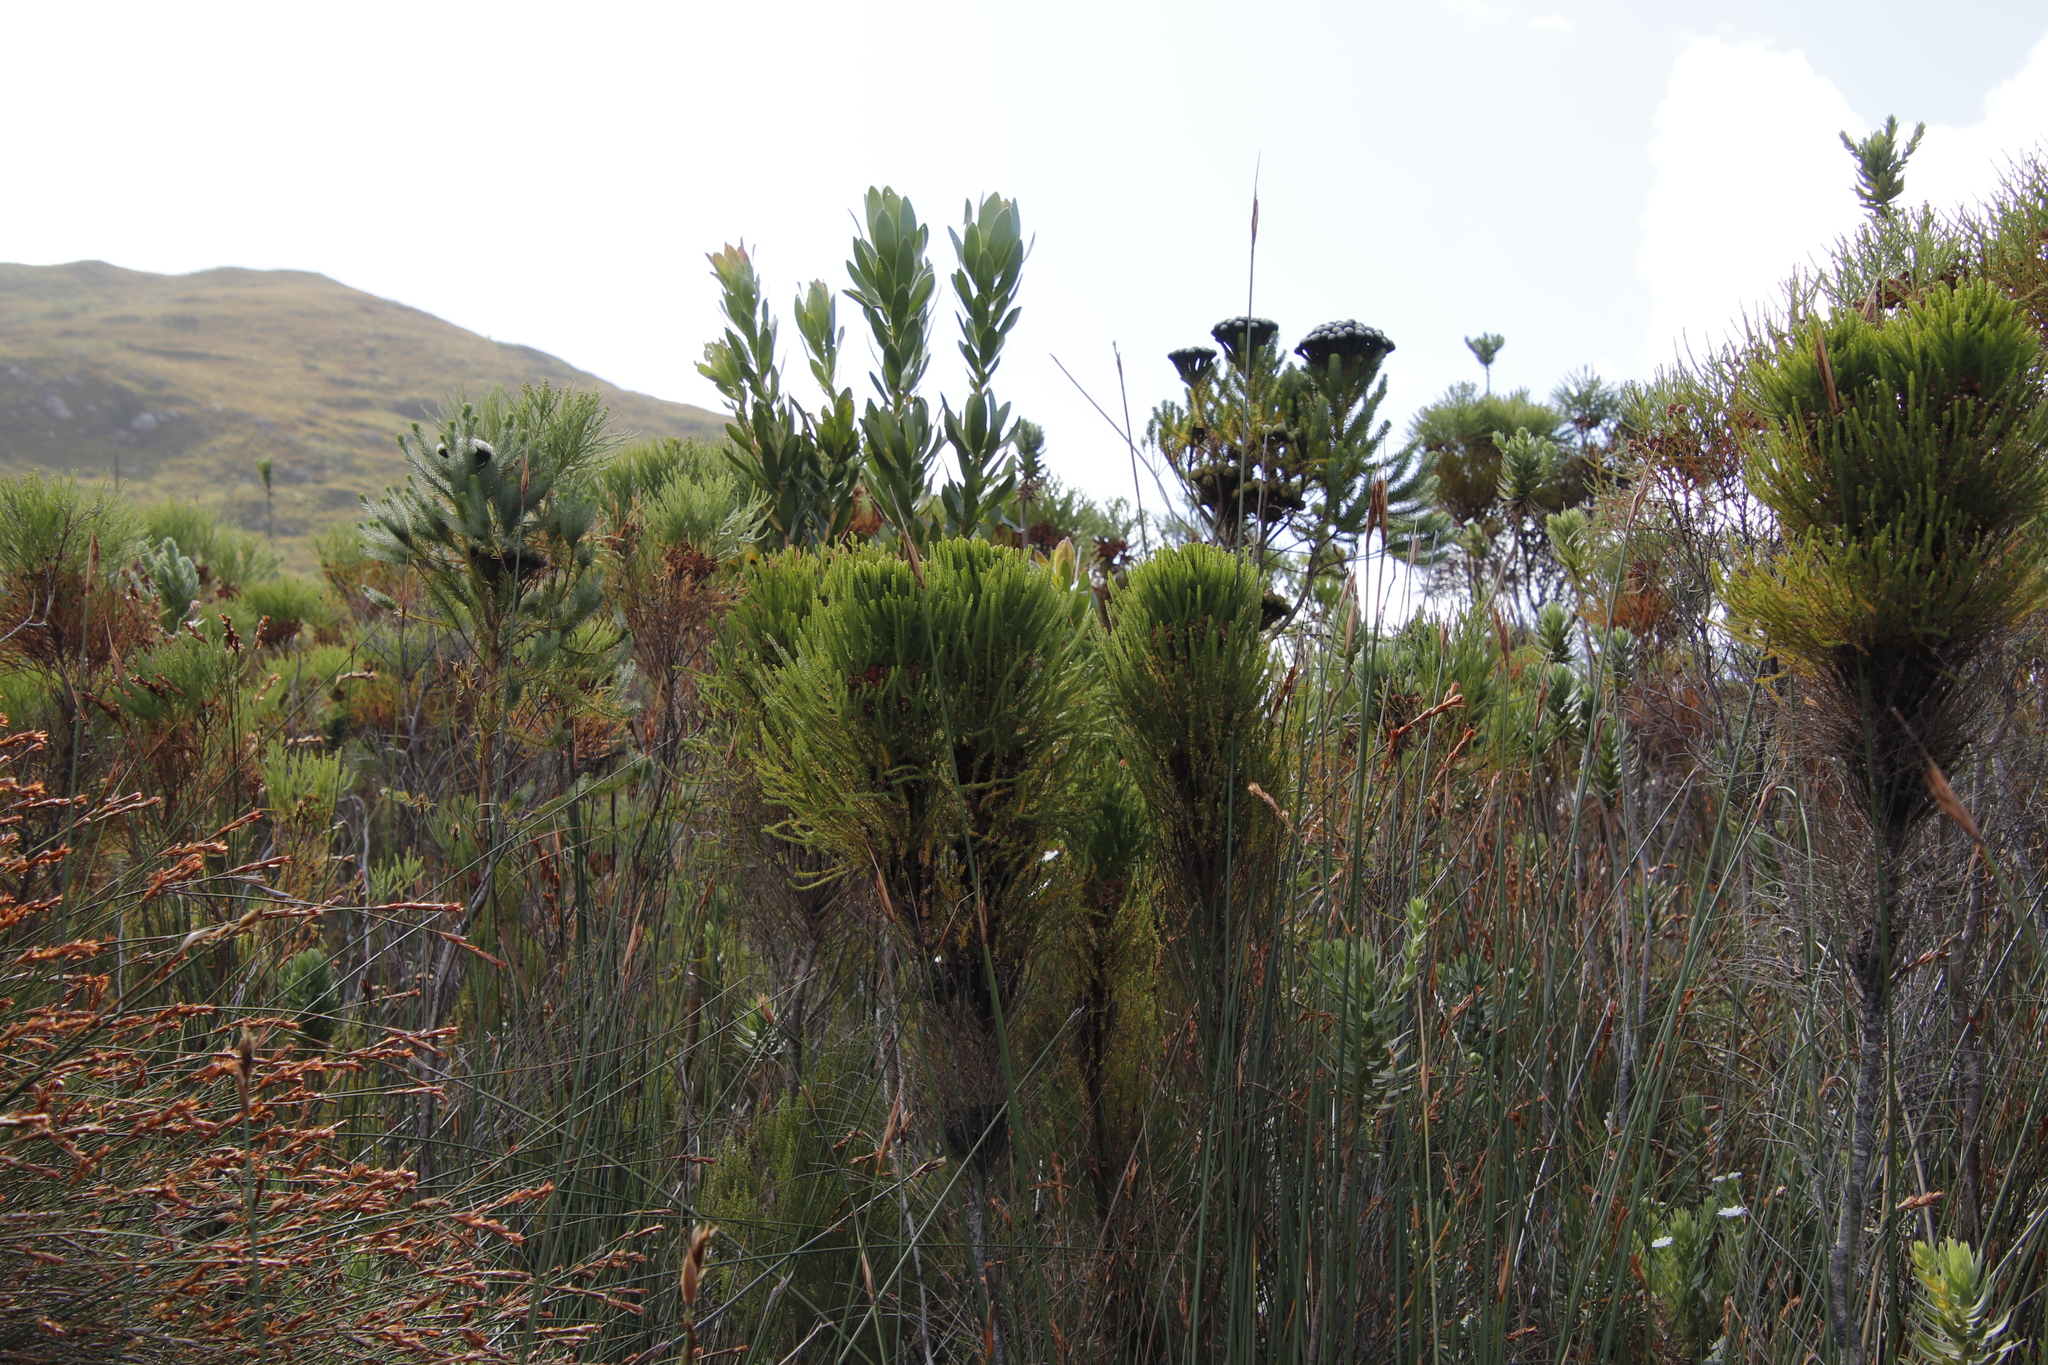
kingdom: Plantae
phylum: Tracheophyta
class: Magnoliopsida
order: Bruniales
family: Bruniaceae
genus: Berzelia
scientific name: Berzelia alopecurioides
